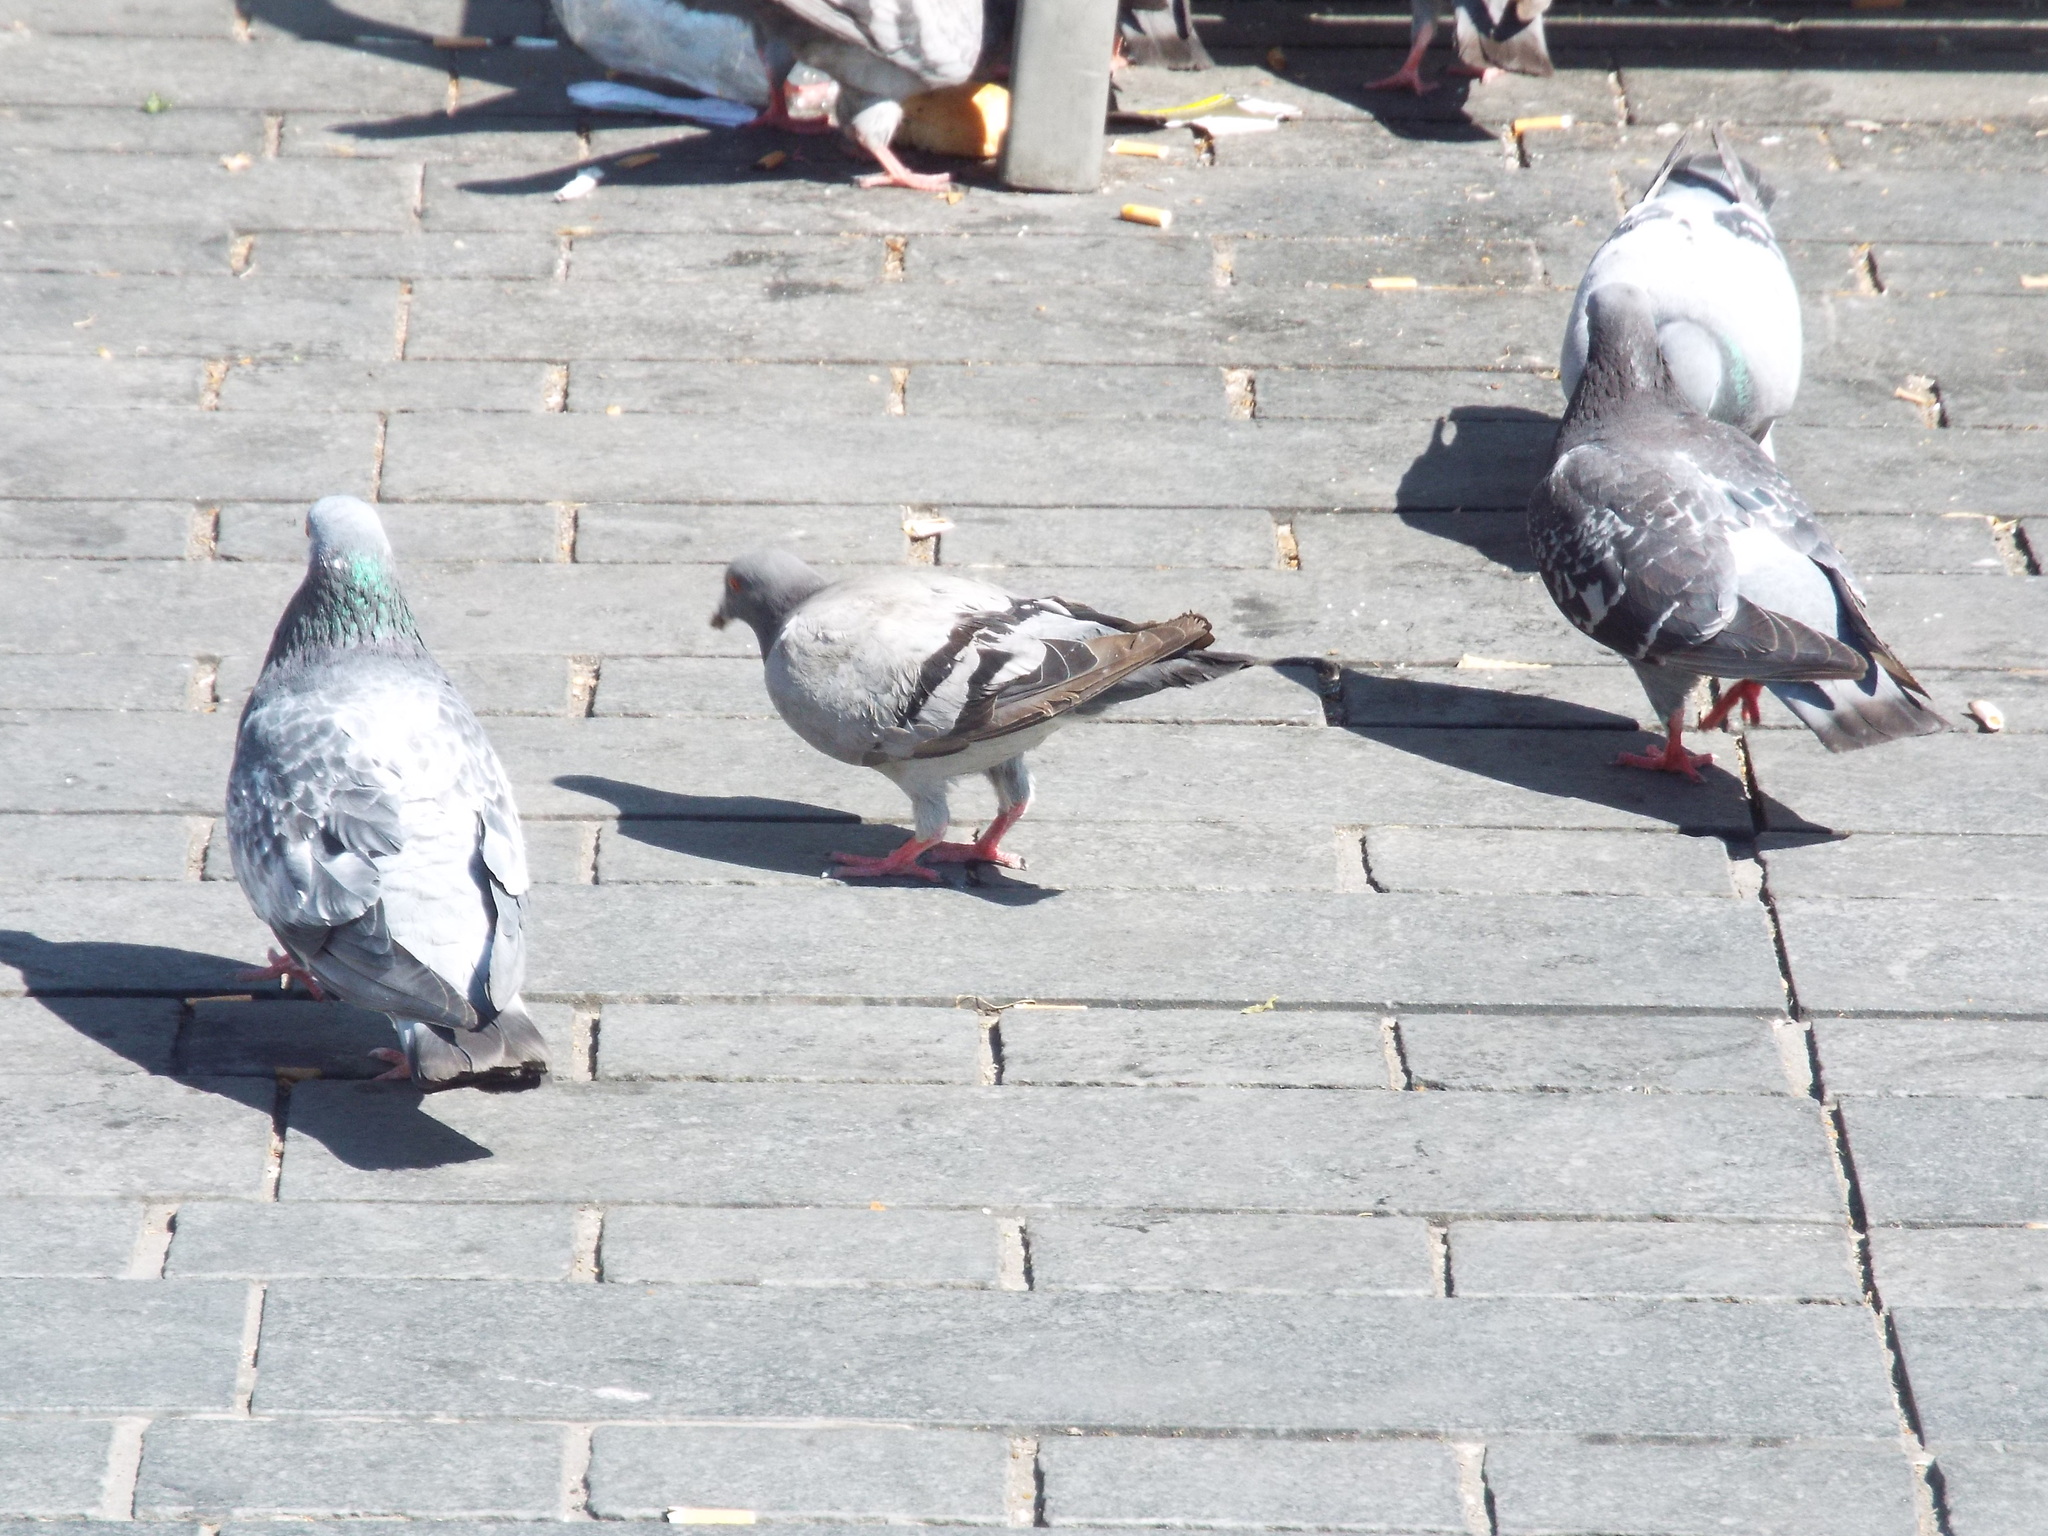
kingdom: Animalia
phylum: Chordata
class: Aves
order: Columbiformes
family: Columbidae
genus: Columba
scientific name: Columba livia
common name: Rock pigeon
